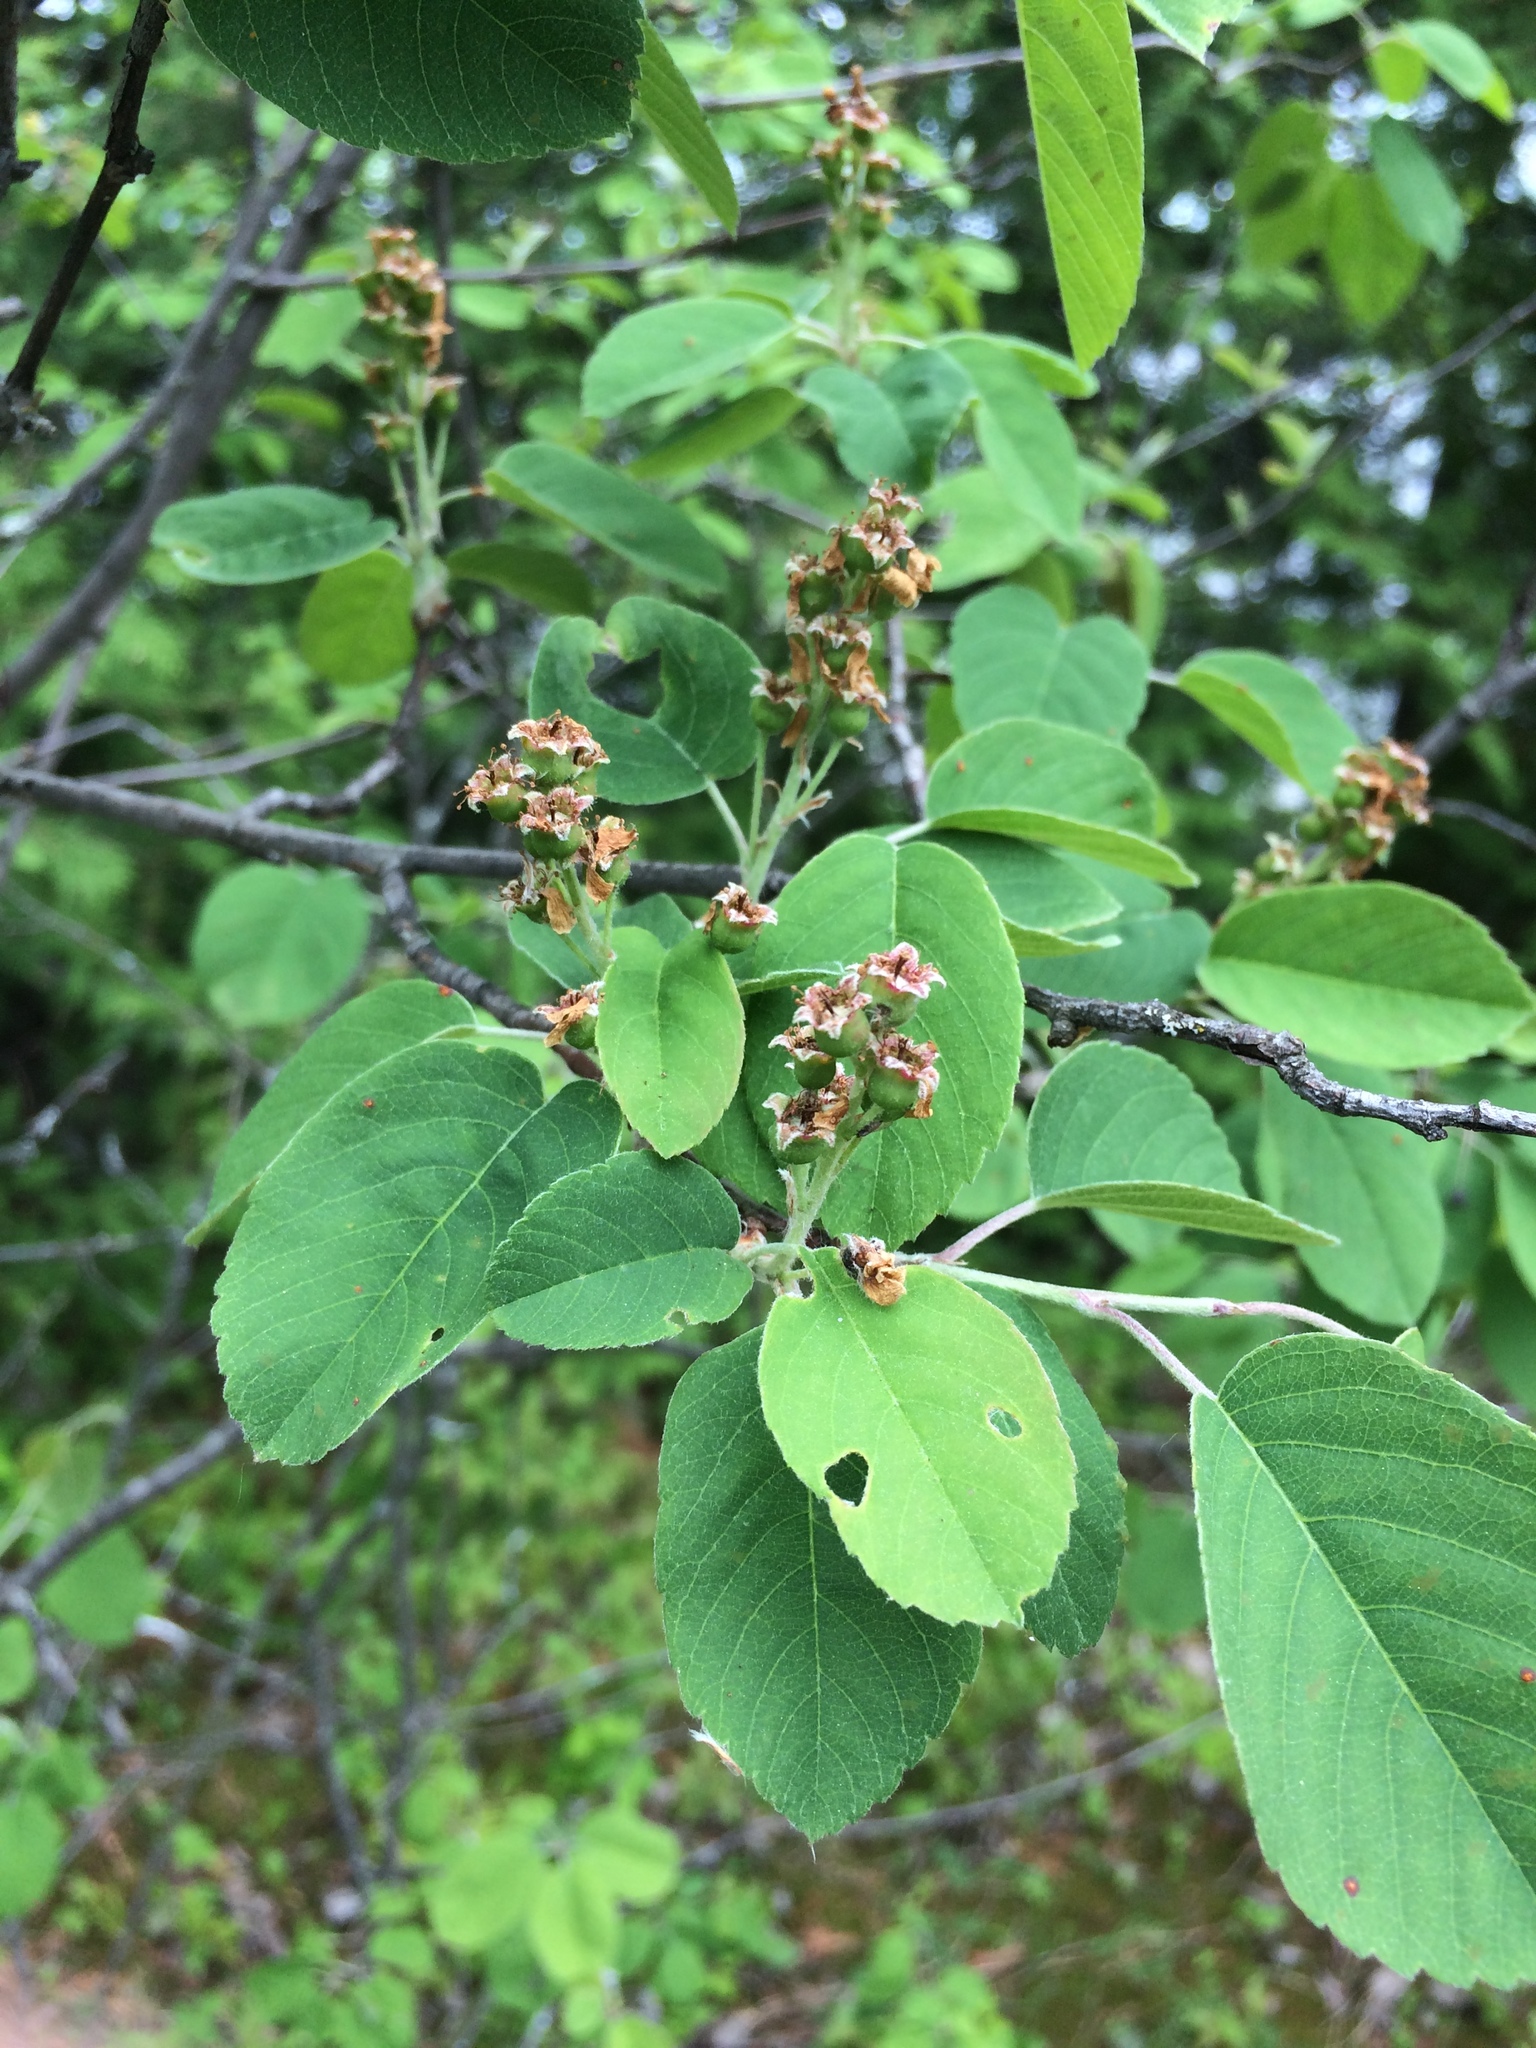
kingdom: Plantae
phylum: Tracheophyta
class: Magnoliopsida
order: Rosales
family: Rosaceae
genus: Amelanchier
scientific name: Amelanchier humilis
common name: Low juneberry
